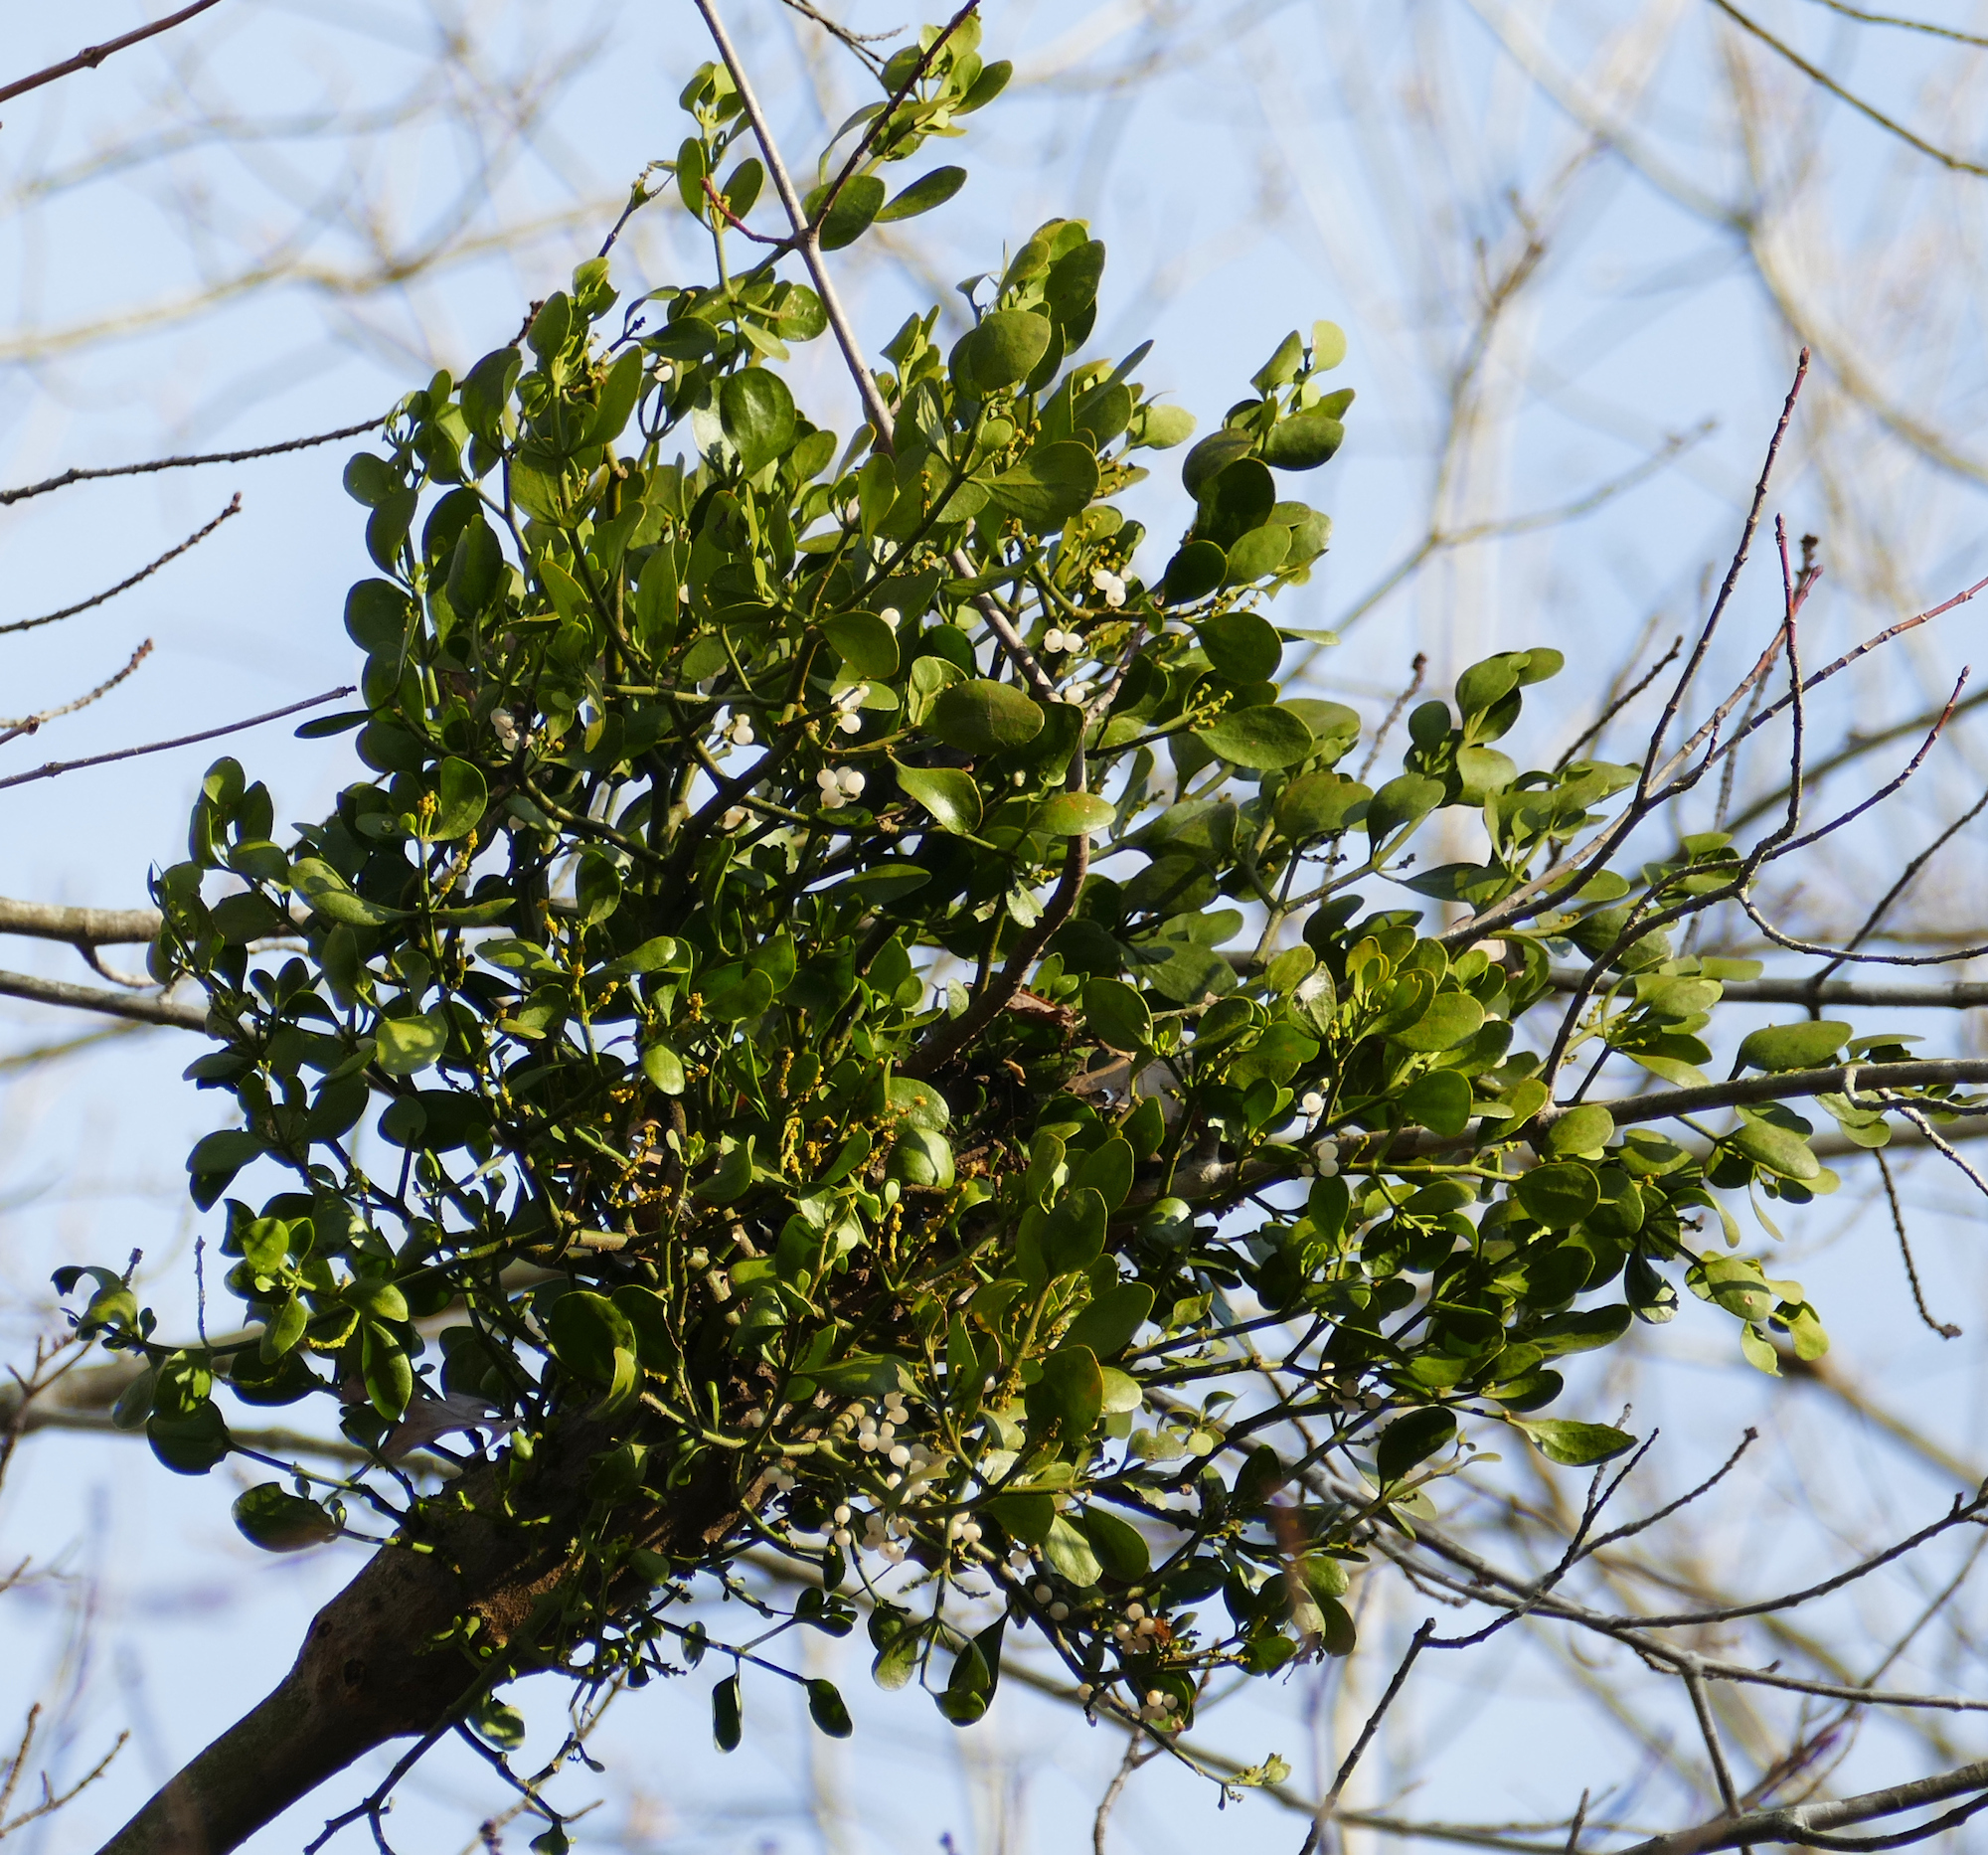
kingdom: Plantae
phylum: Tracheophyta
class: Magnoliopsida
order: Santalales
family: Viscaceae
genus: Phoradendron
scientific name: Phoradendron leucarpum
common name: Pacific mistletoe
